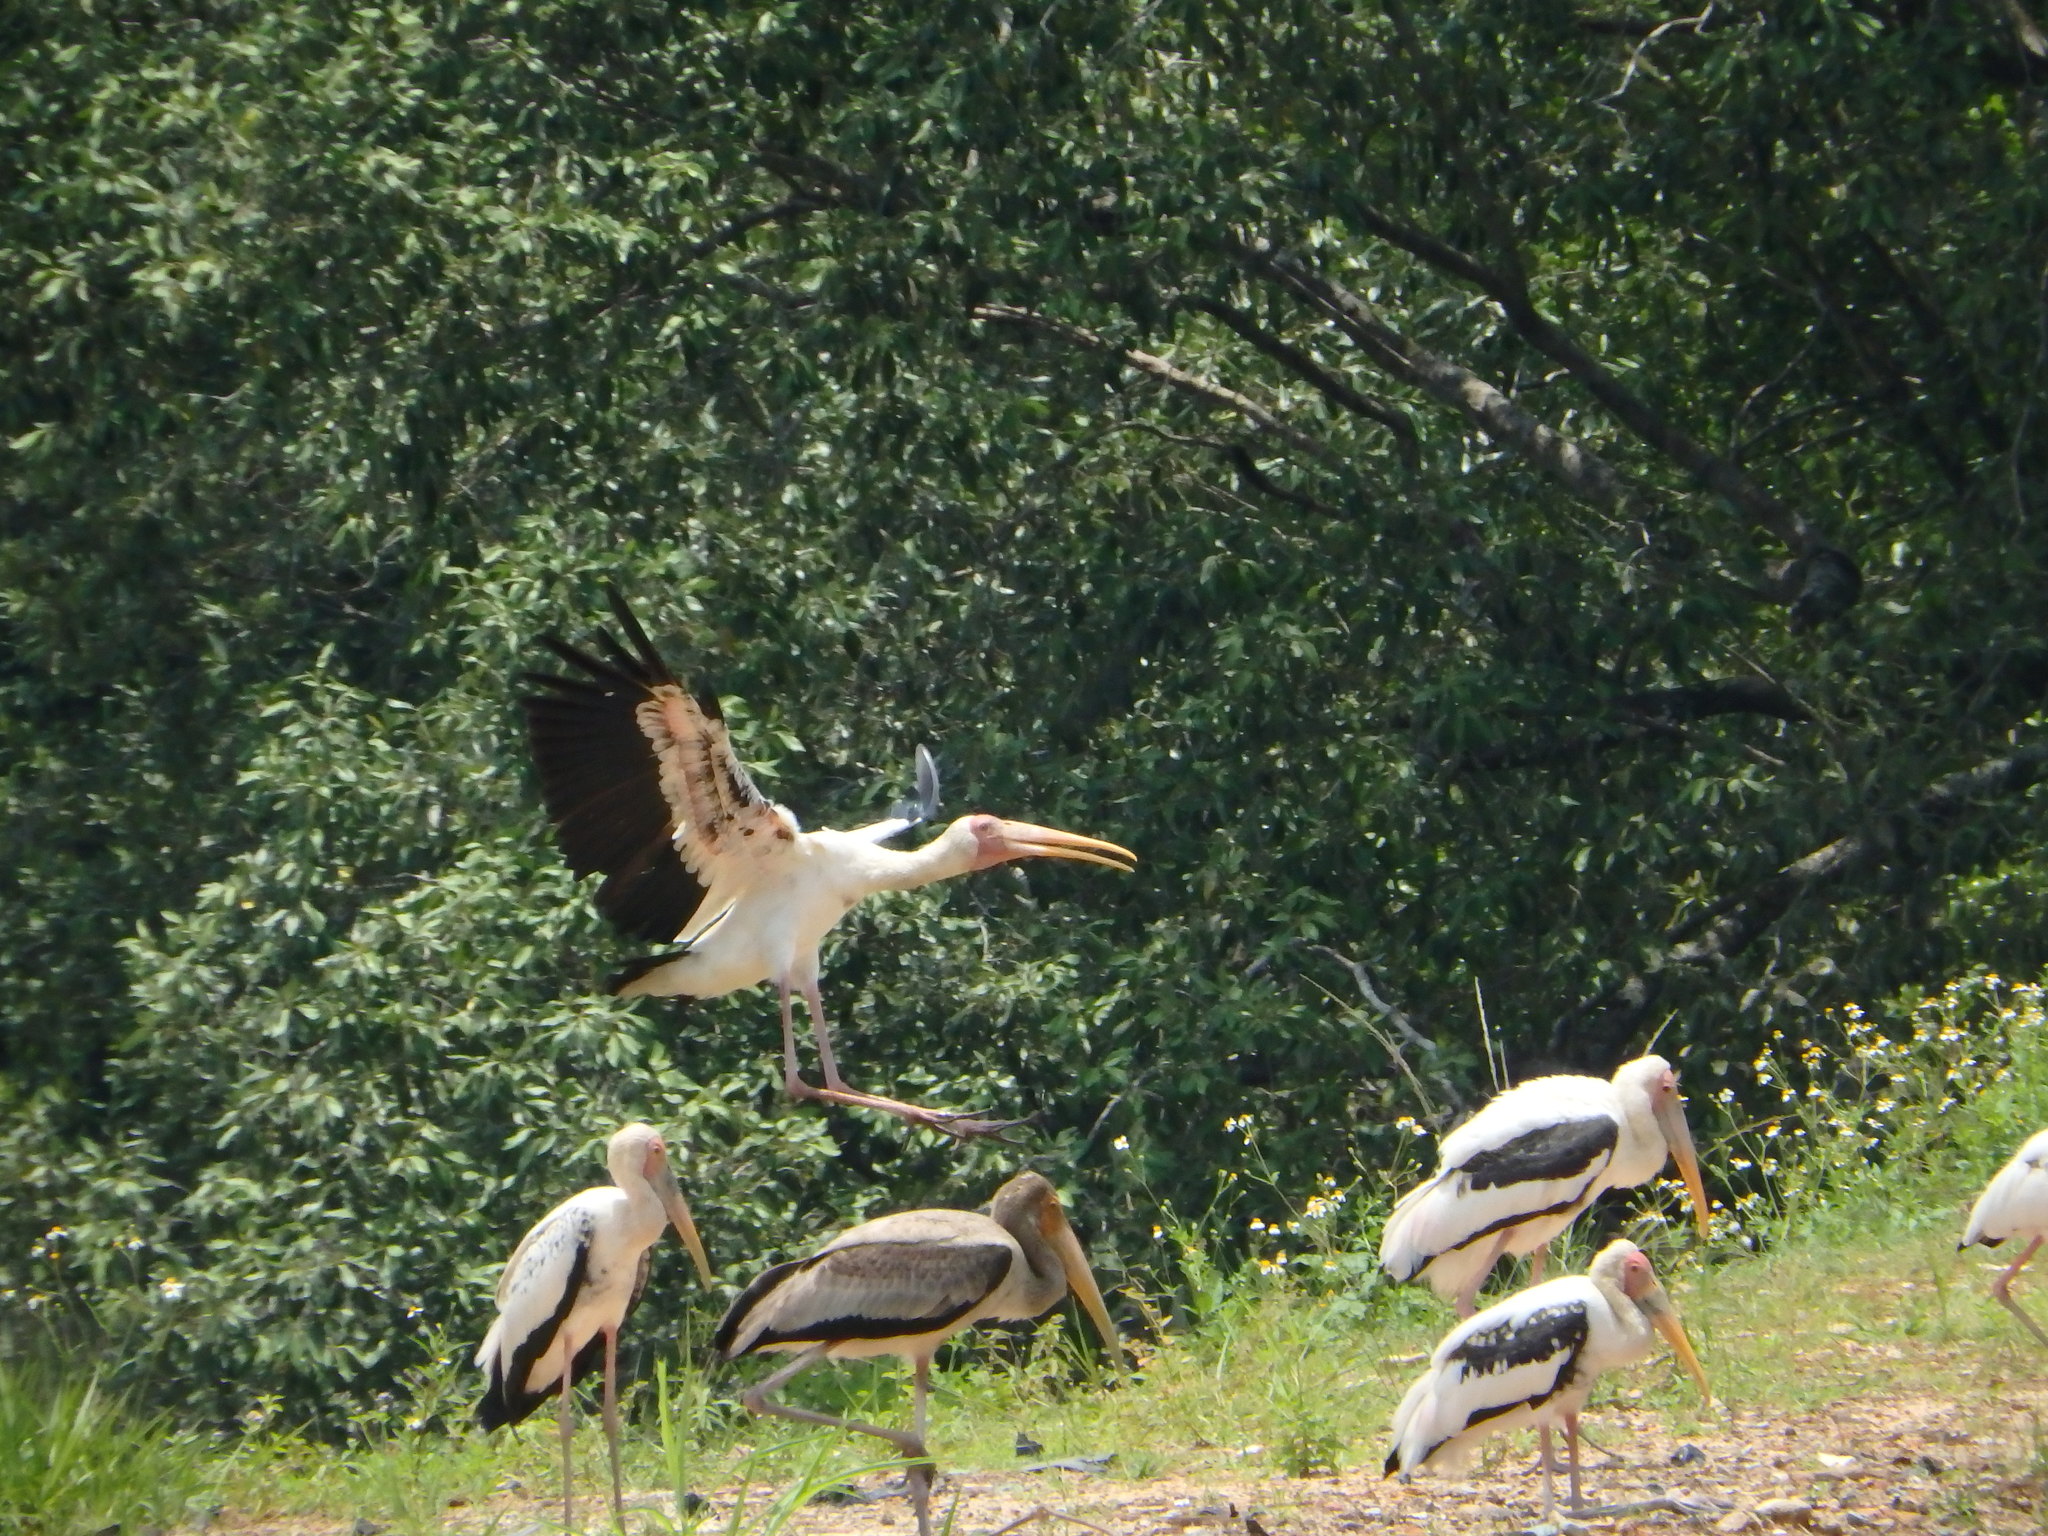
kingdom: Animalia
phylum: Chordata
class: Aves
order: Ciconiiformes
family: Ciconiidae
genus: Mycteria
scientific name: Mycteria
